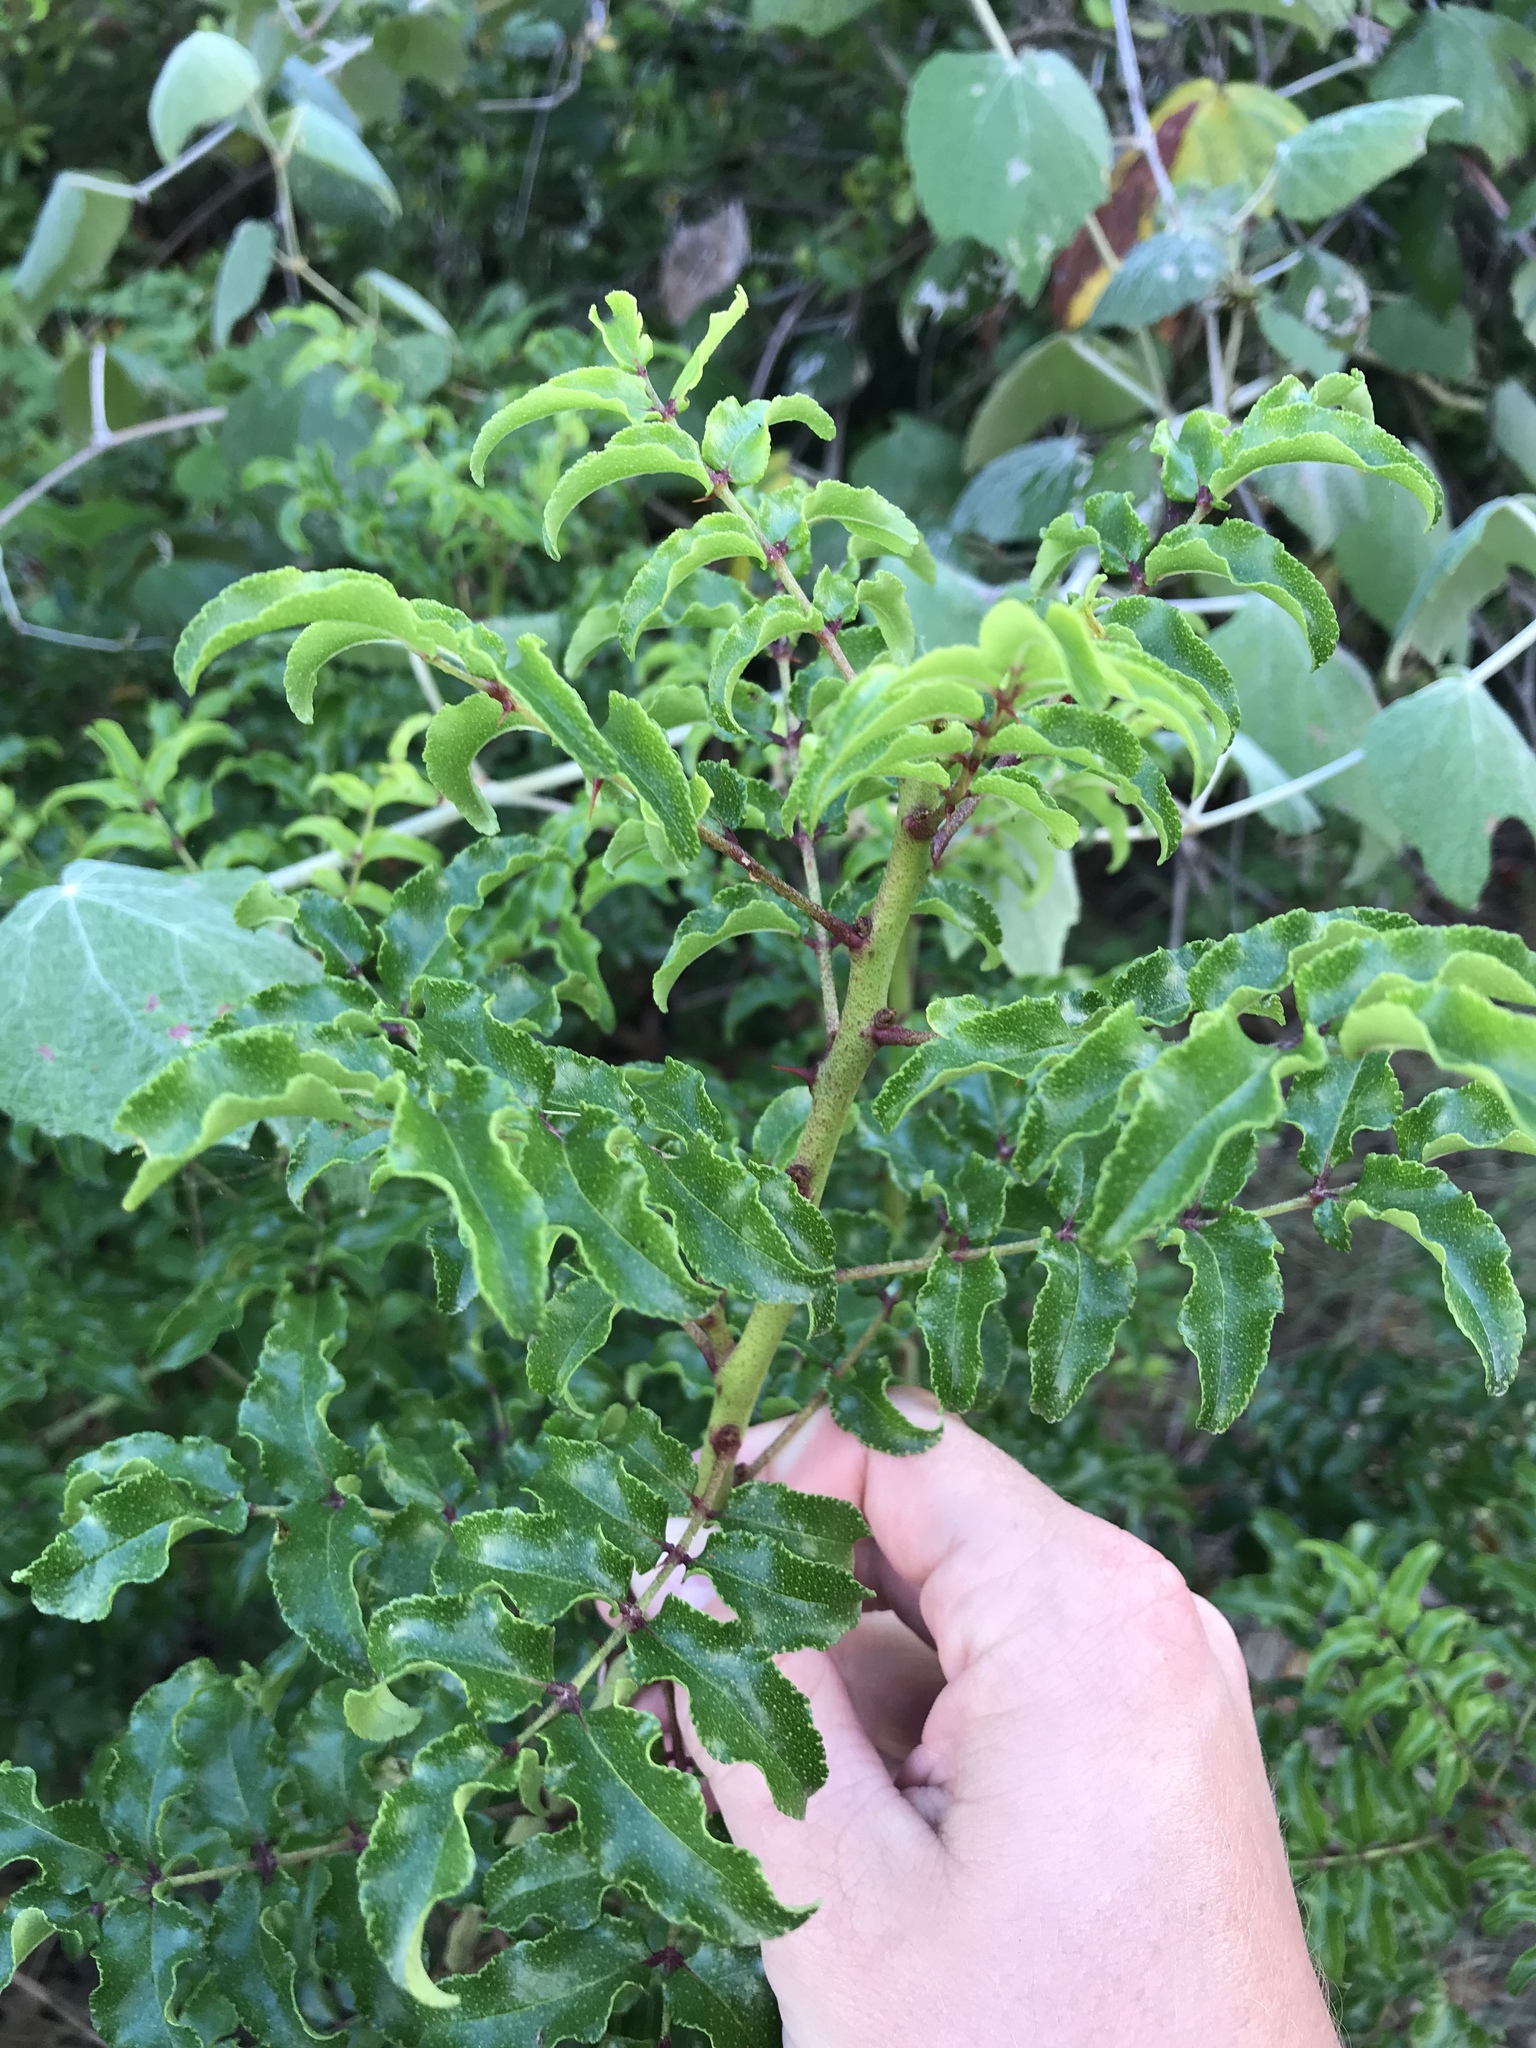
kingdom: Plantae
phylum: Tracheophyta
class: Magnoliopsida
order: Sapindales
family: Rutaceae
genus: Zanthoxylum
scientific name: Zanthoxylum clava-herculis
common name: Hercules'-club
